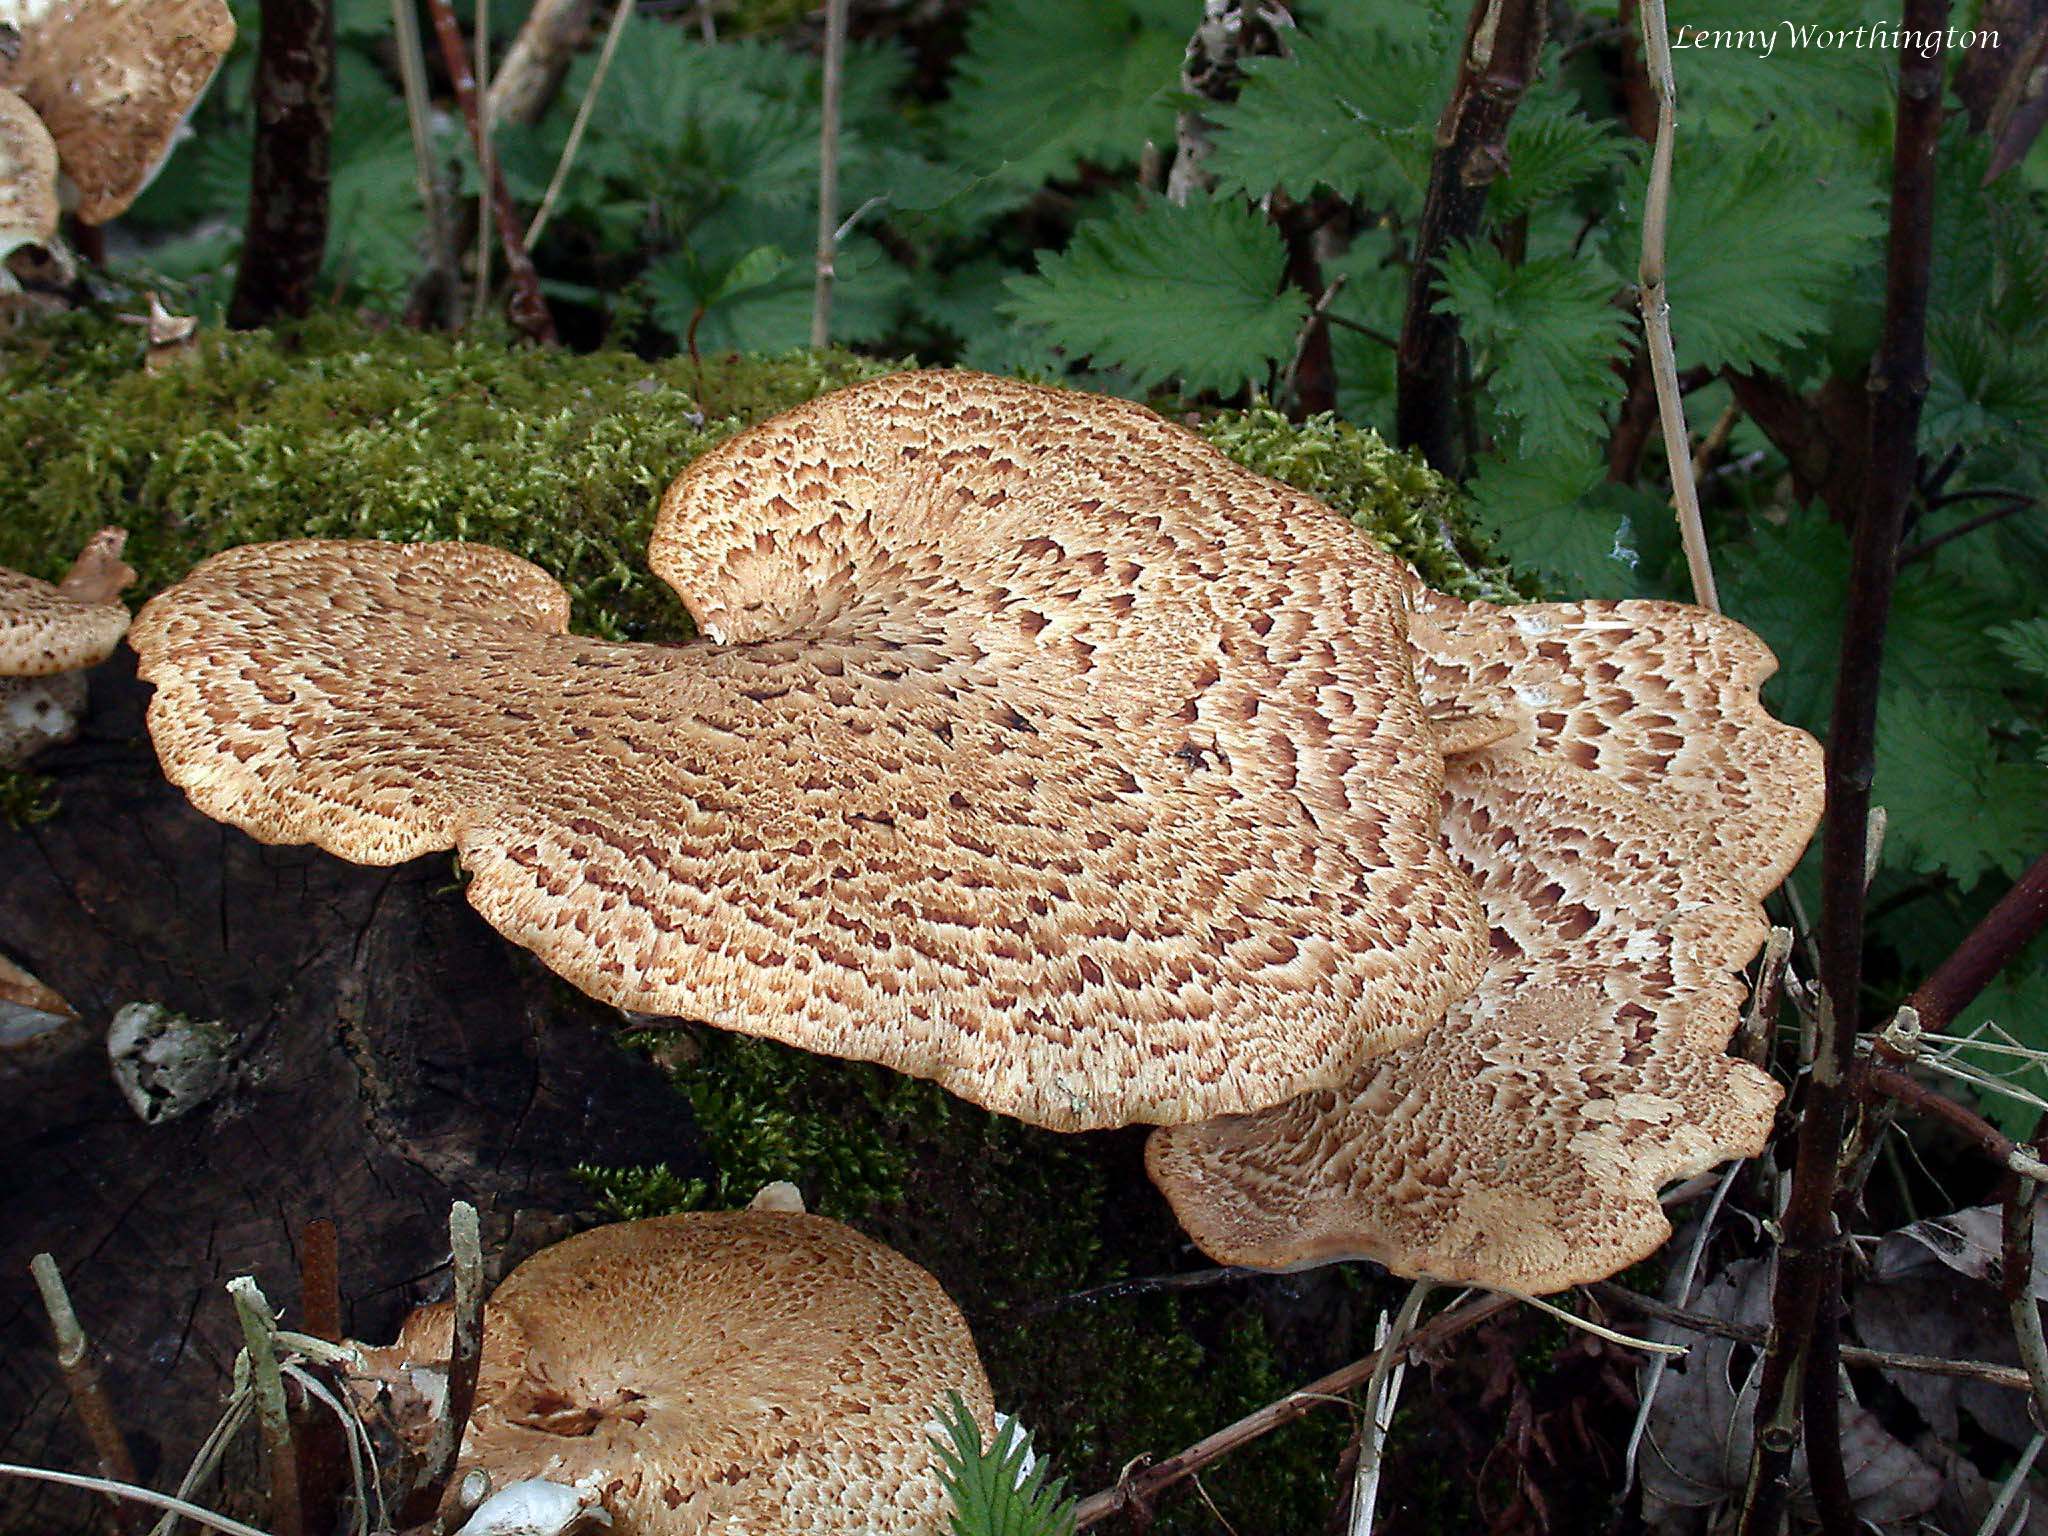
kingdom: Fungi
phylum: Basidiomycota
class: Agaricomycetes
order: Polyporales
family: Polyporaceae
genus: Cerioporus
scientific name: Cerioporus squamosus
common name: Dryad's saddle
